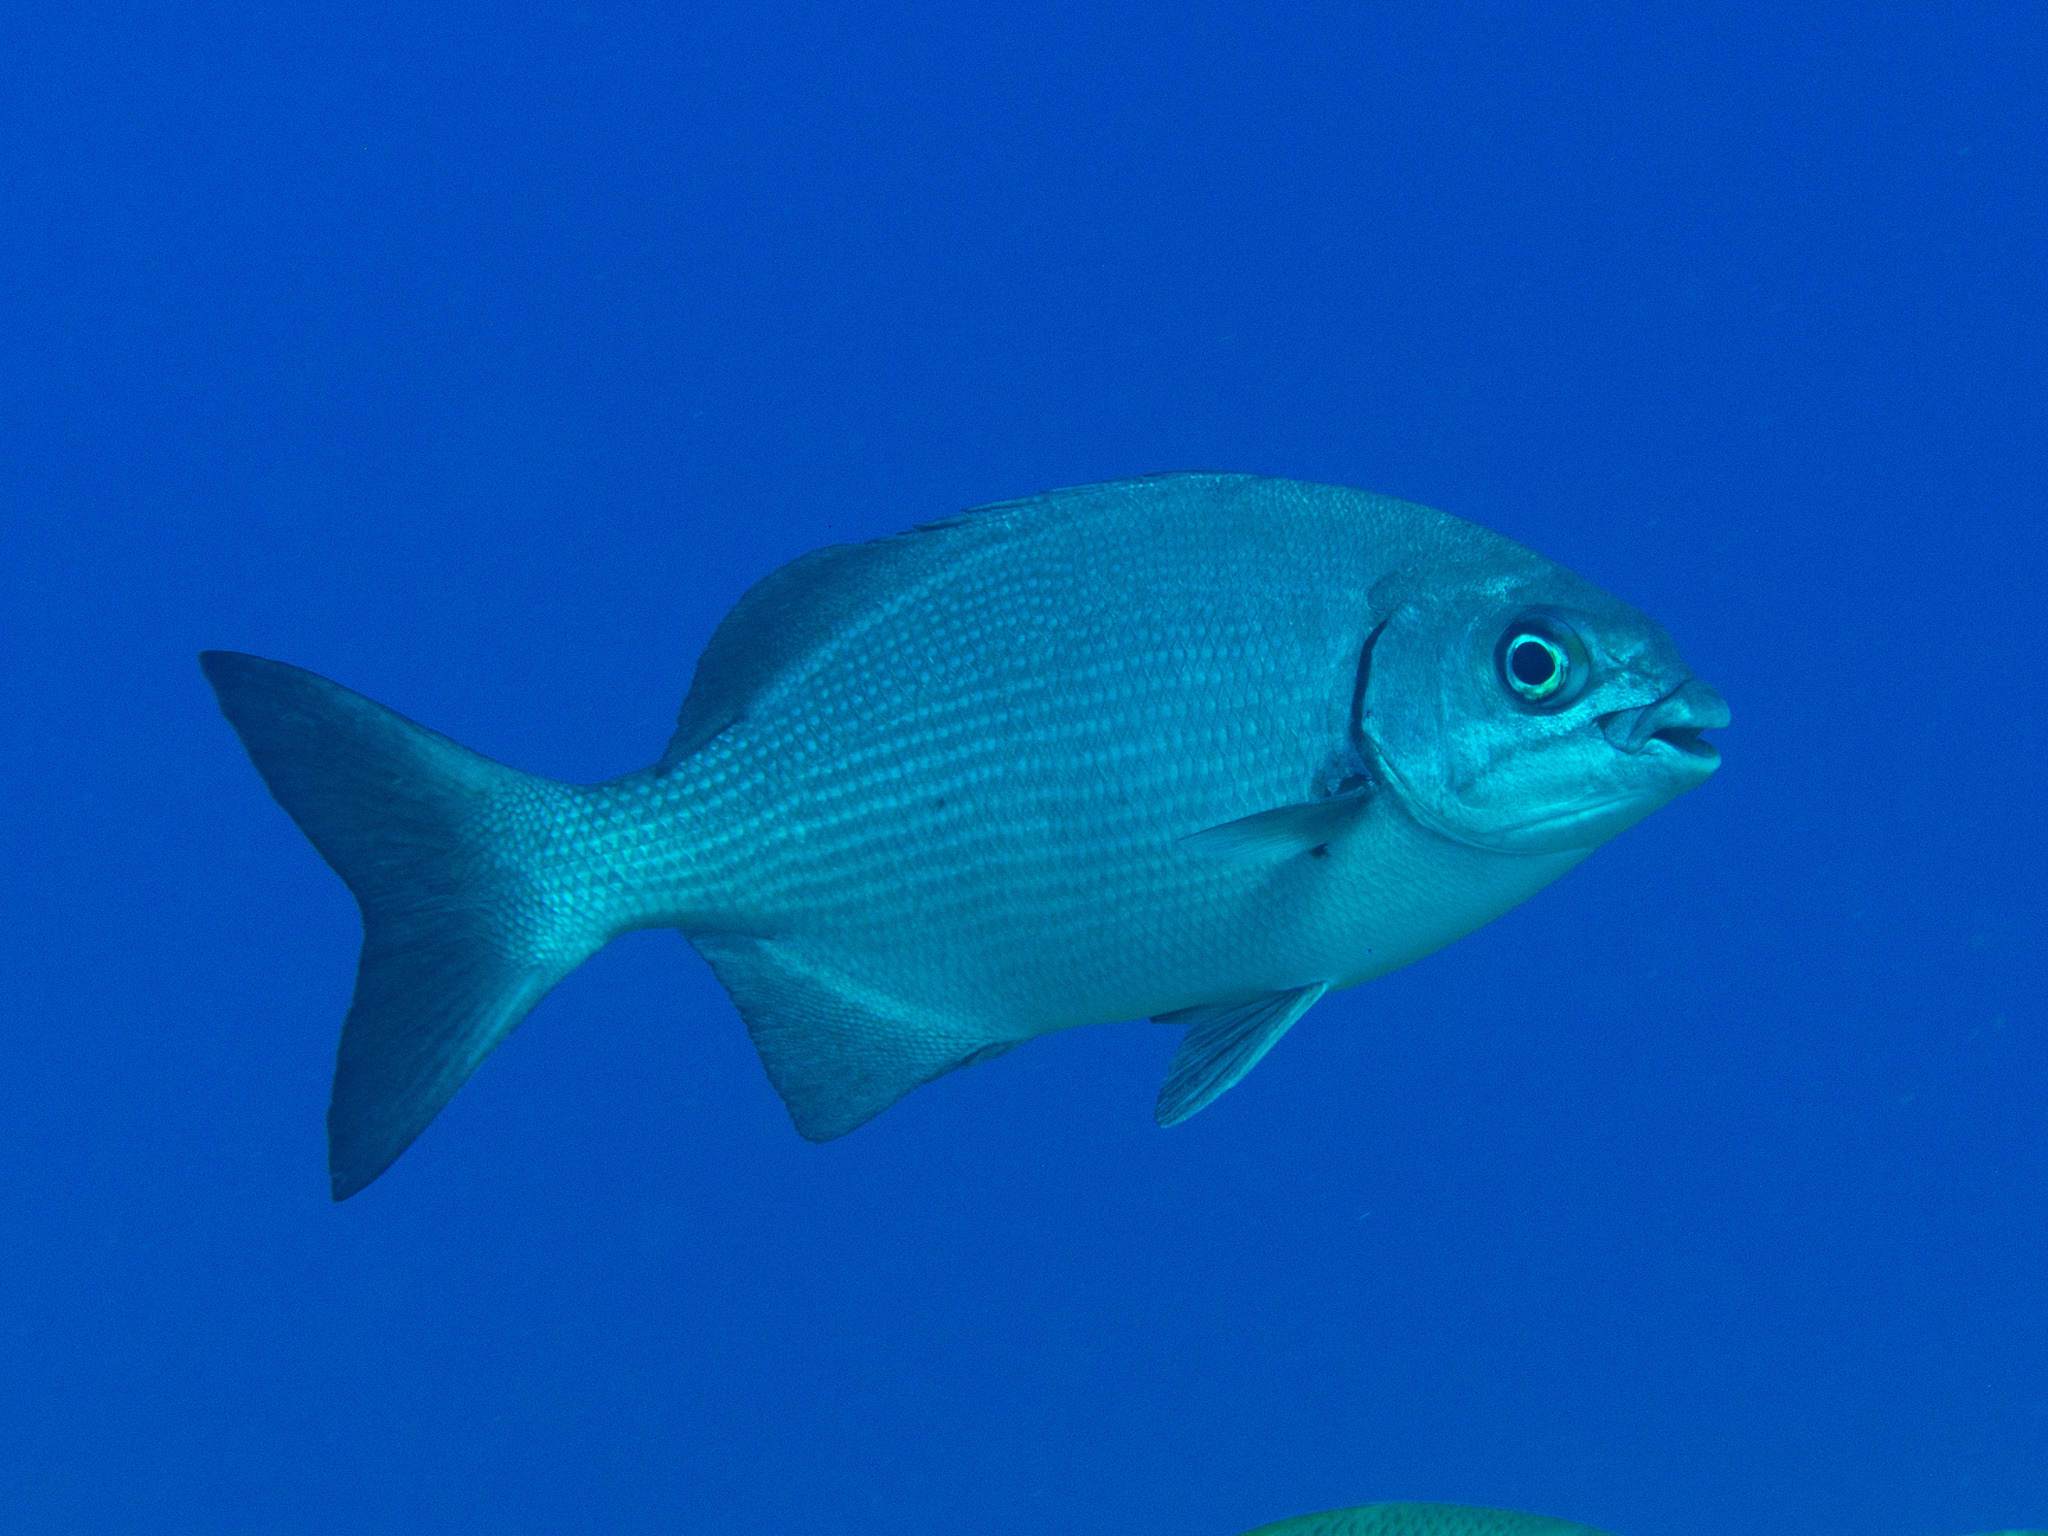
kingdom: Animalia
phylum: Chordata
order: Perciformes
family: Kyphosidae
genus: Kyphosus
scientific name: Kyphosus sectatrix
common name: Bermuda chub
